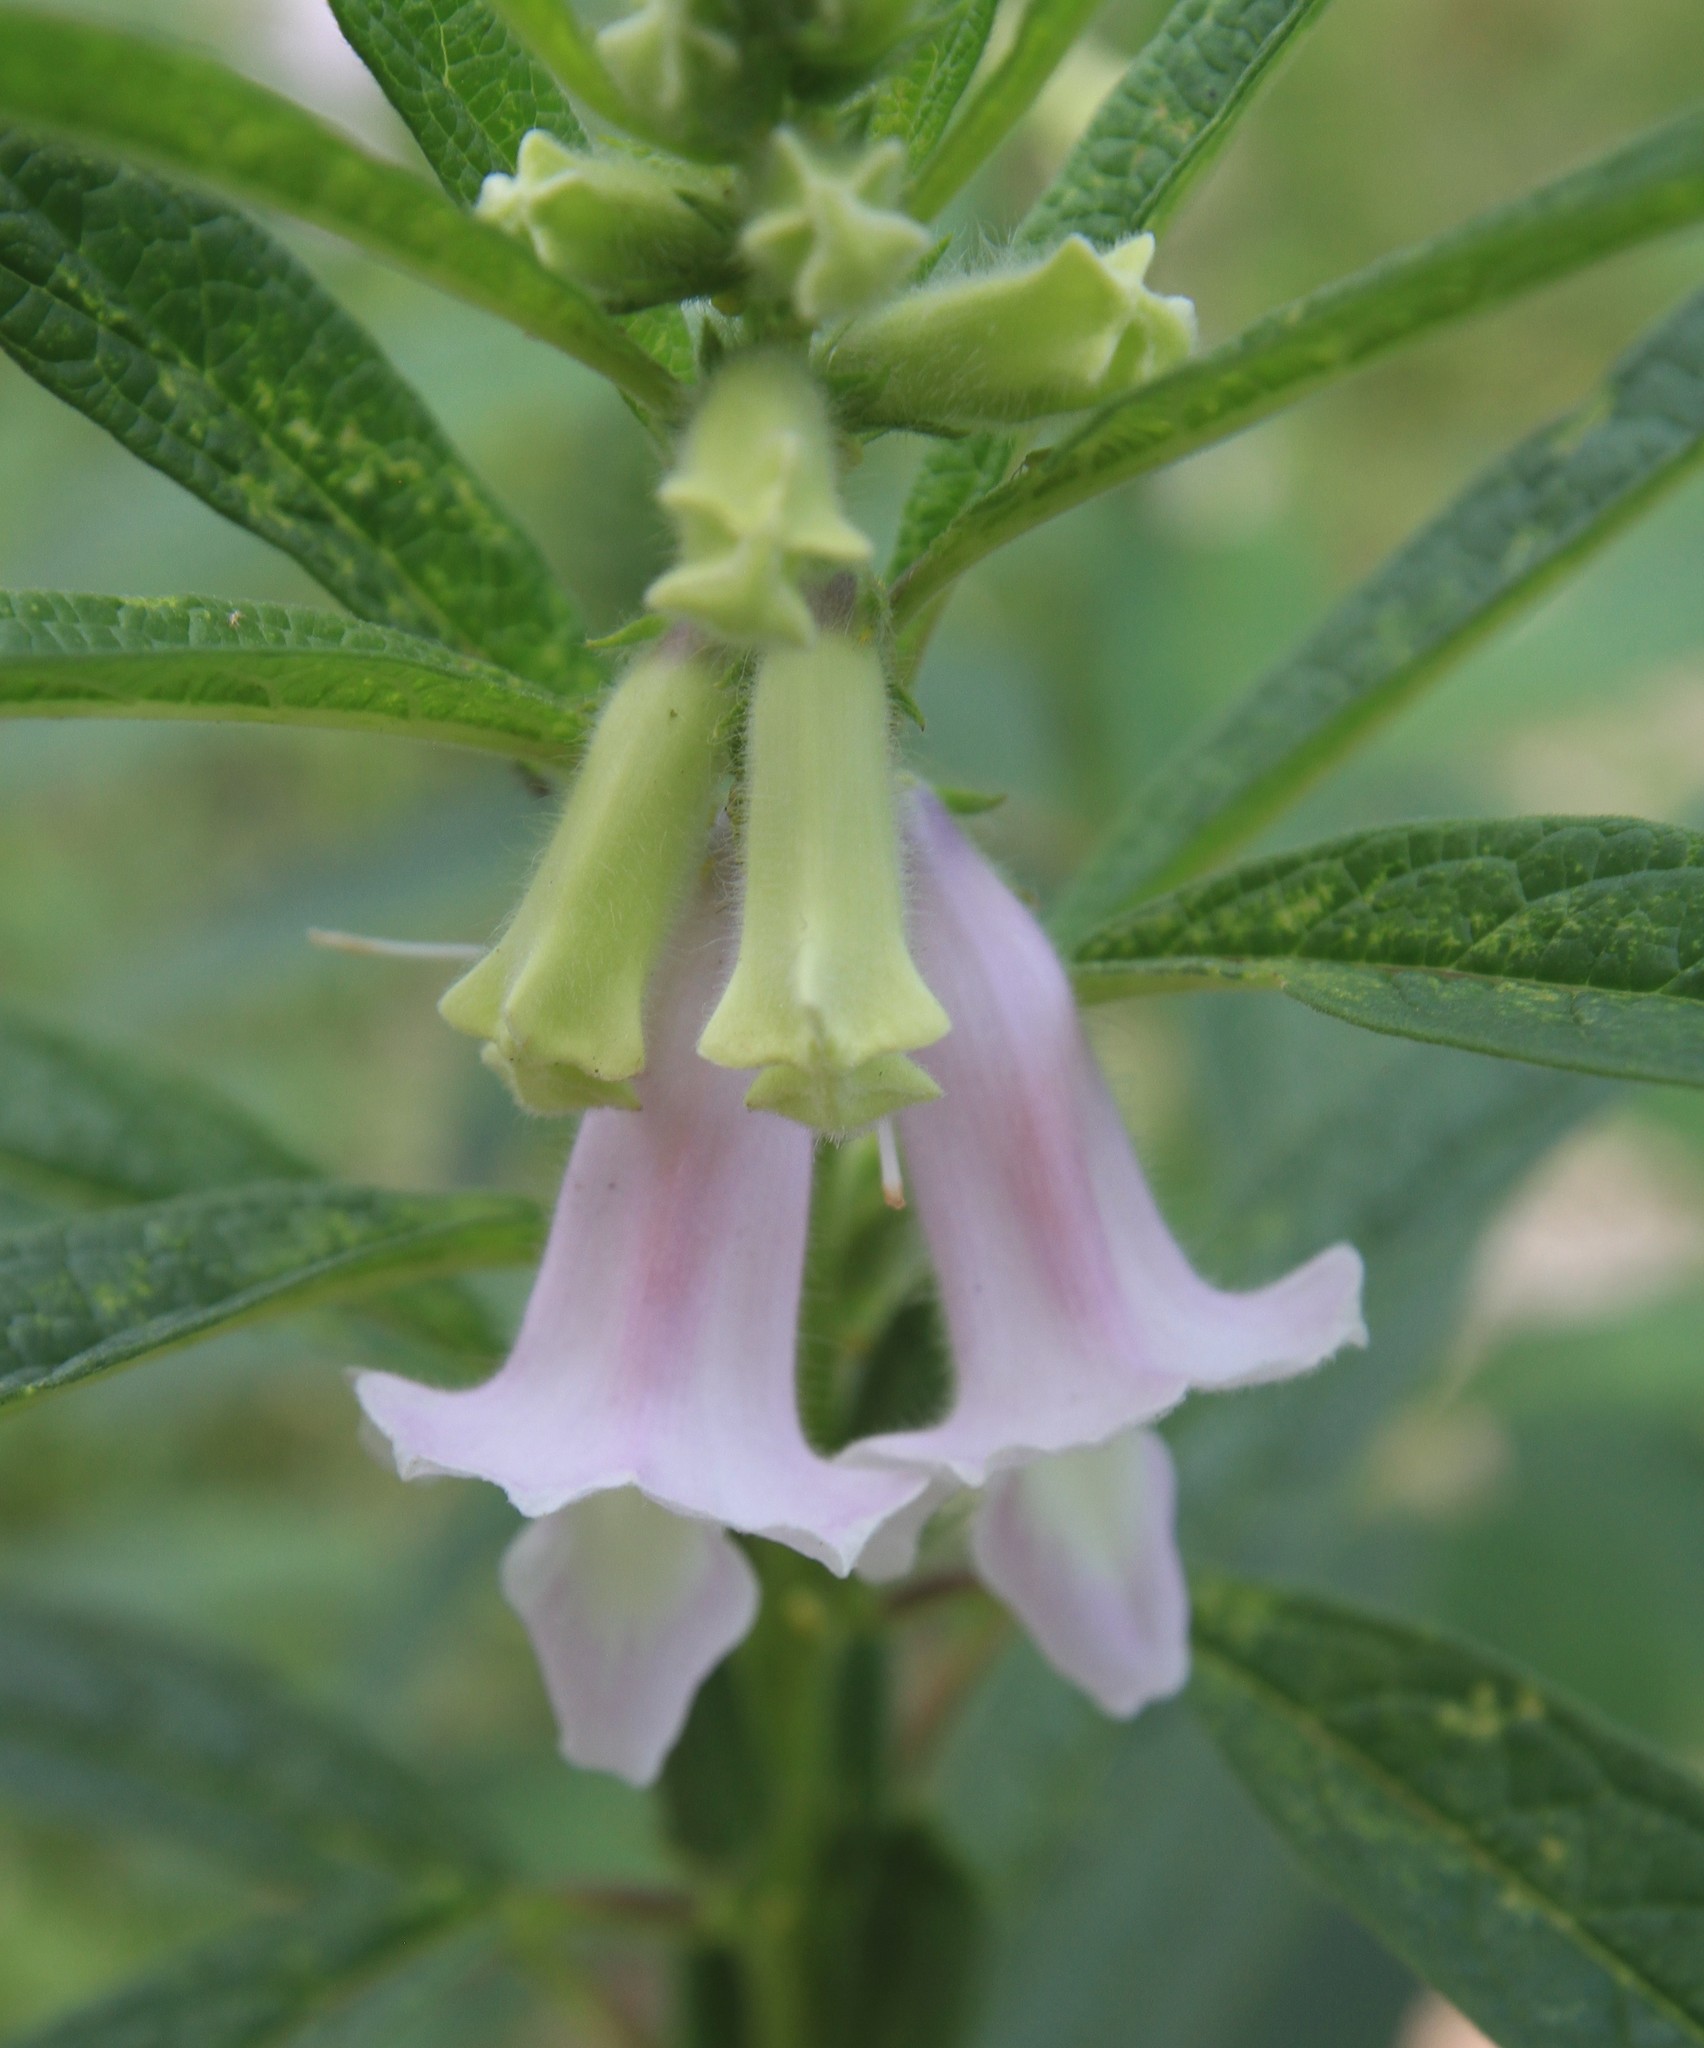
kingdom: Plantae
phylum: Tracheophyta
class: Magnoliopsida
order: Lamiales
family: Pedaliaceae
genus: Sesamum
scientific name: Sesamum indicum
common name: Sesame
